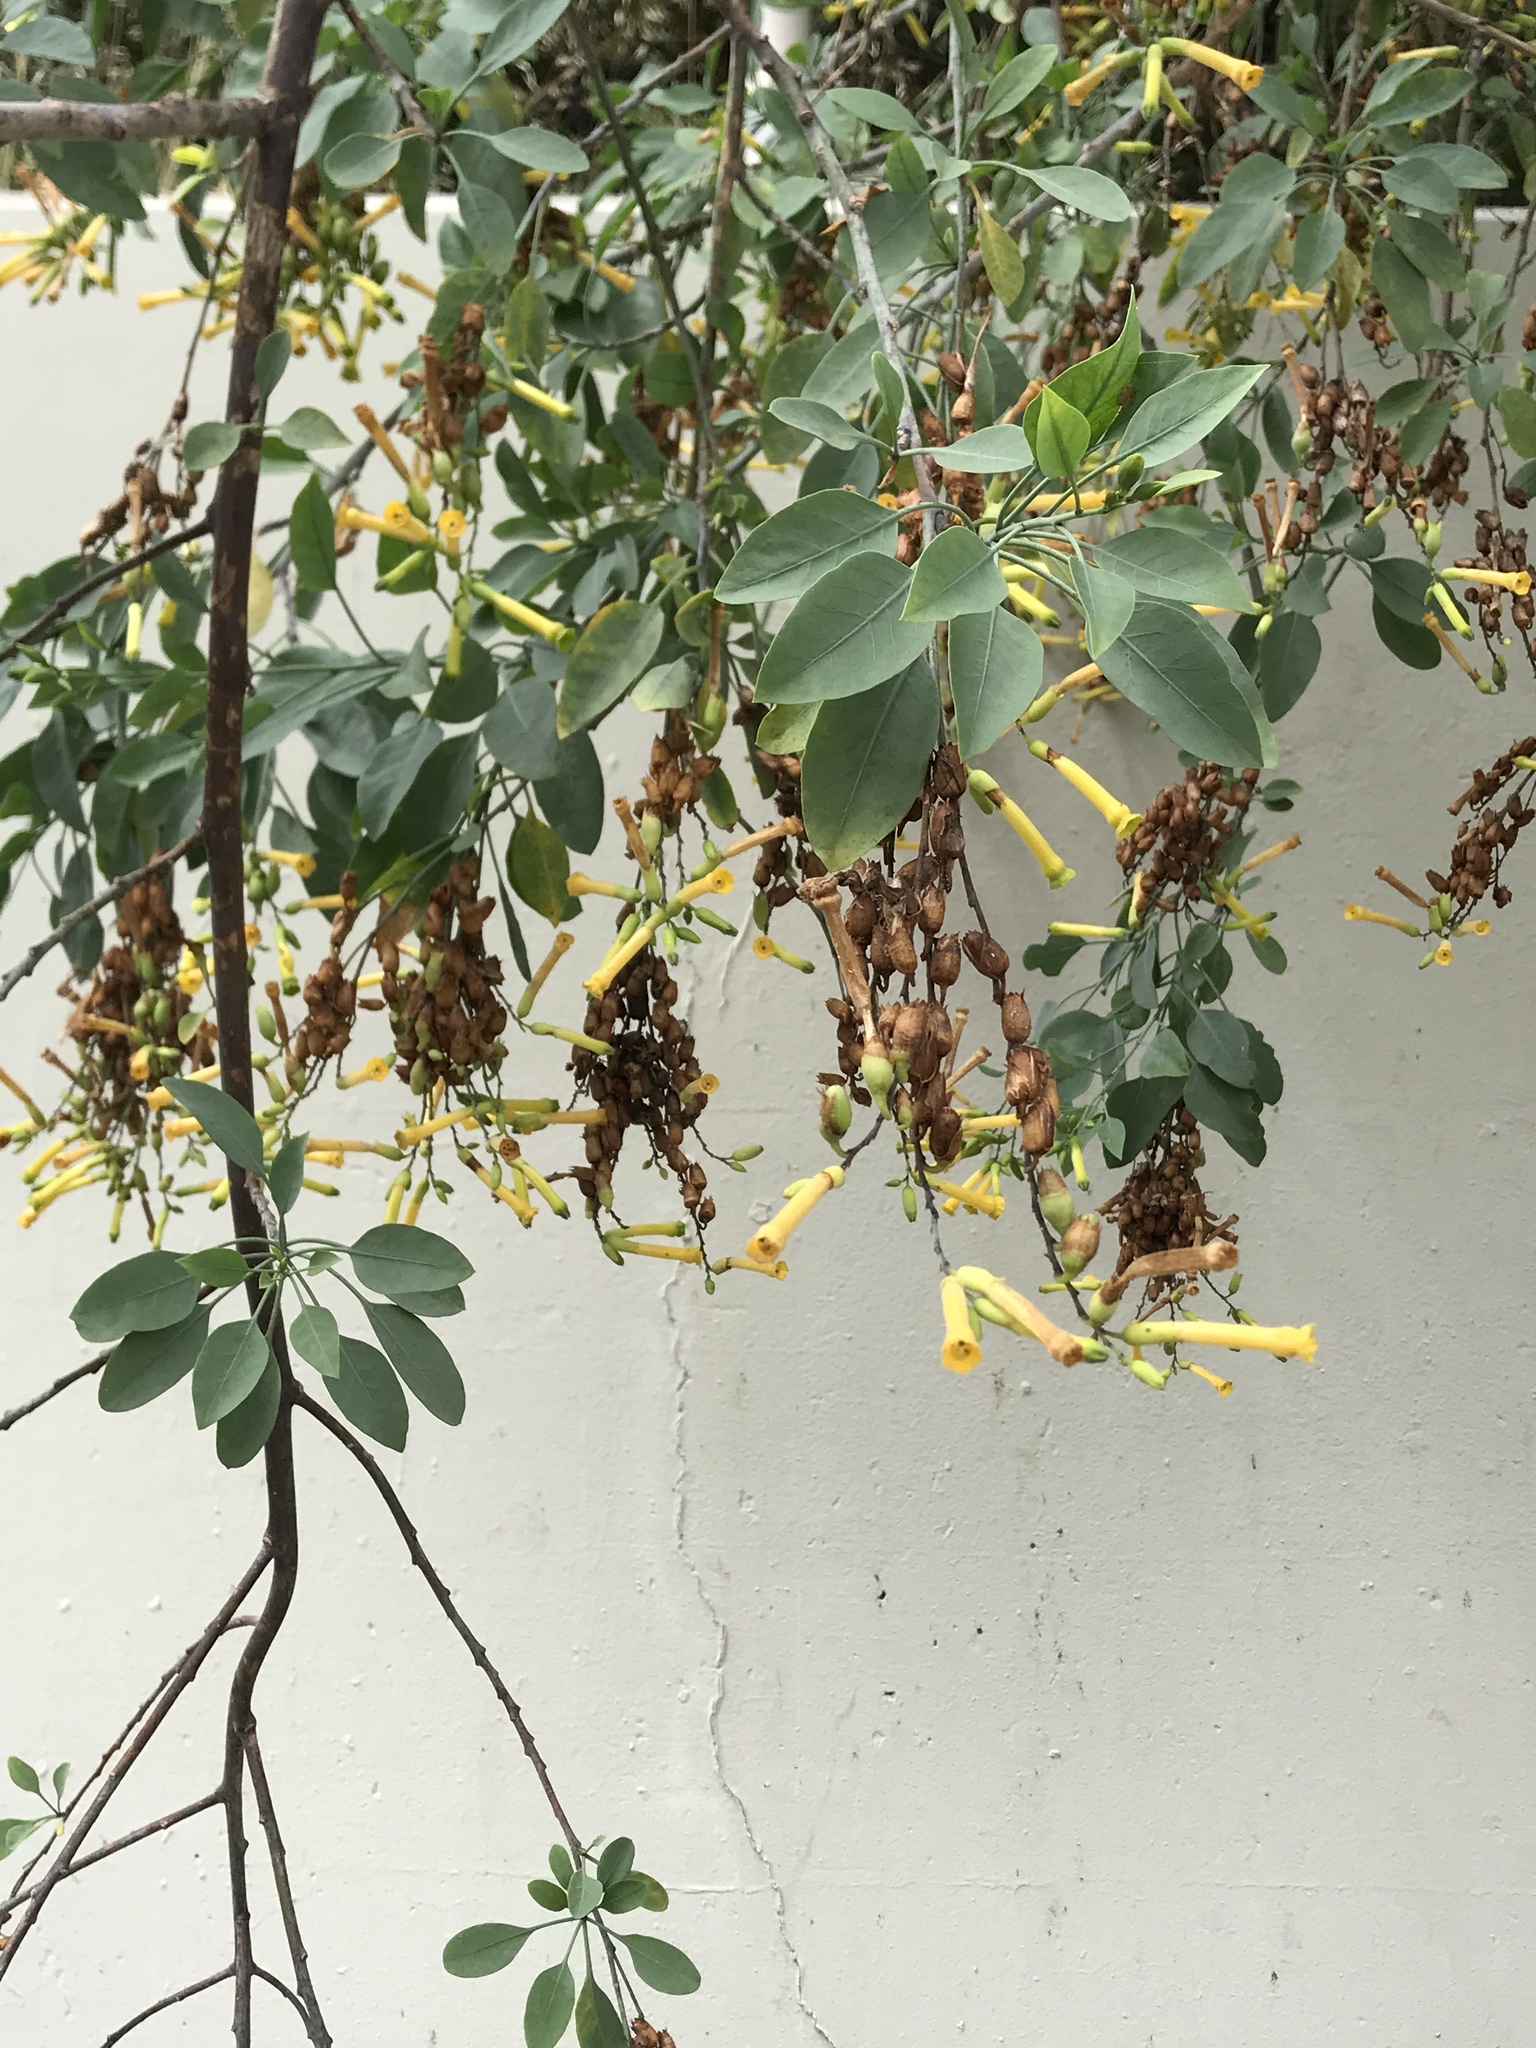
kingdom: Plantae
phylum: Tracheophyta
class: Magnoliopsida
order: Solanales
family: Solanaceae
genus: Nicotiana
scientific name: Nicotiana glauca
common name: Tree tobacco
